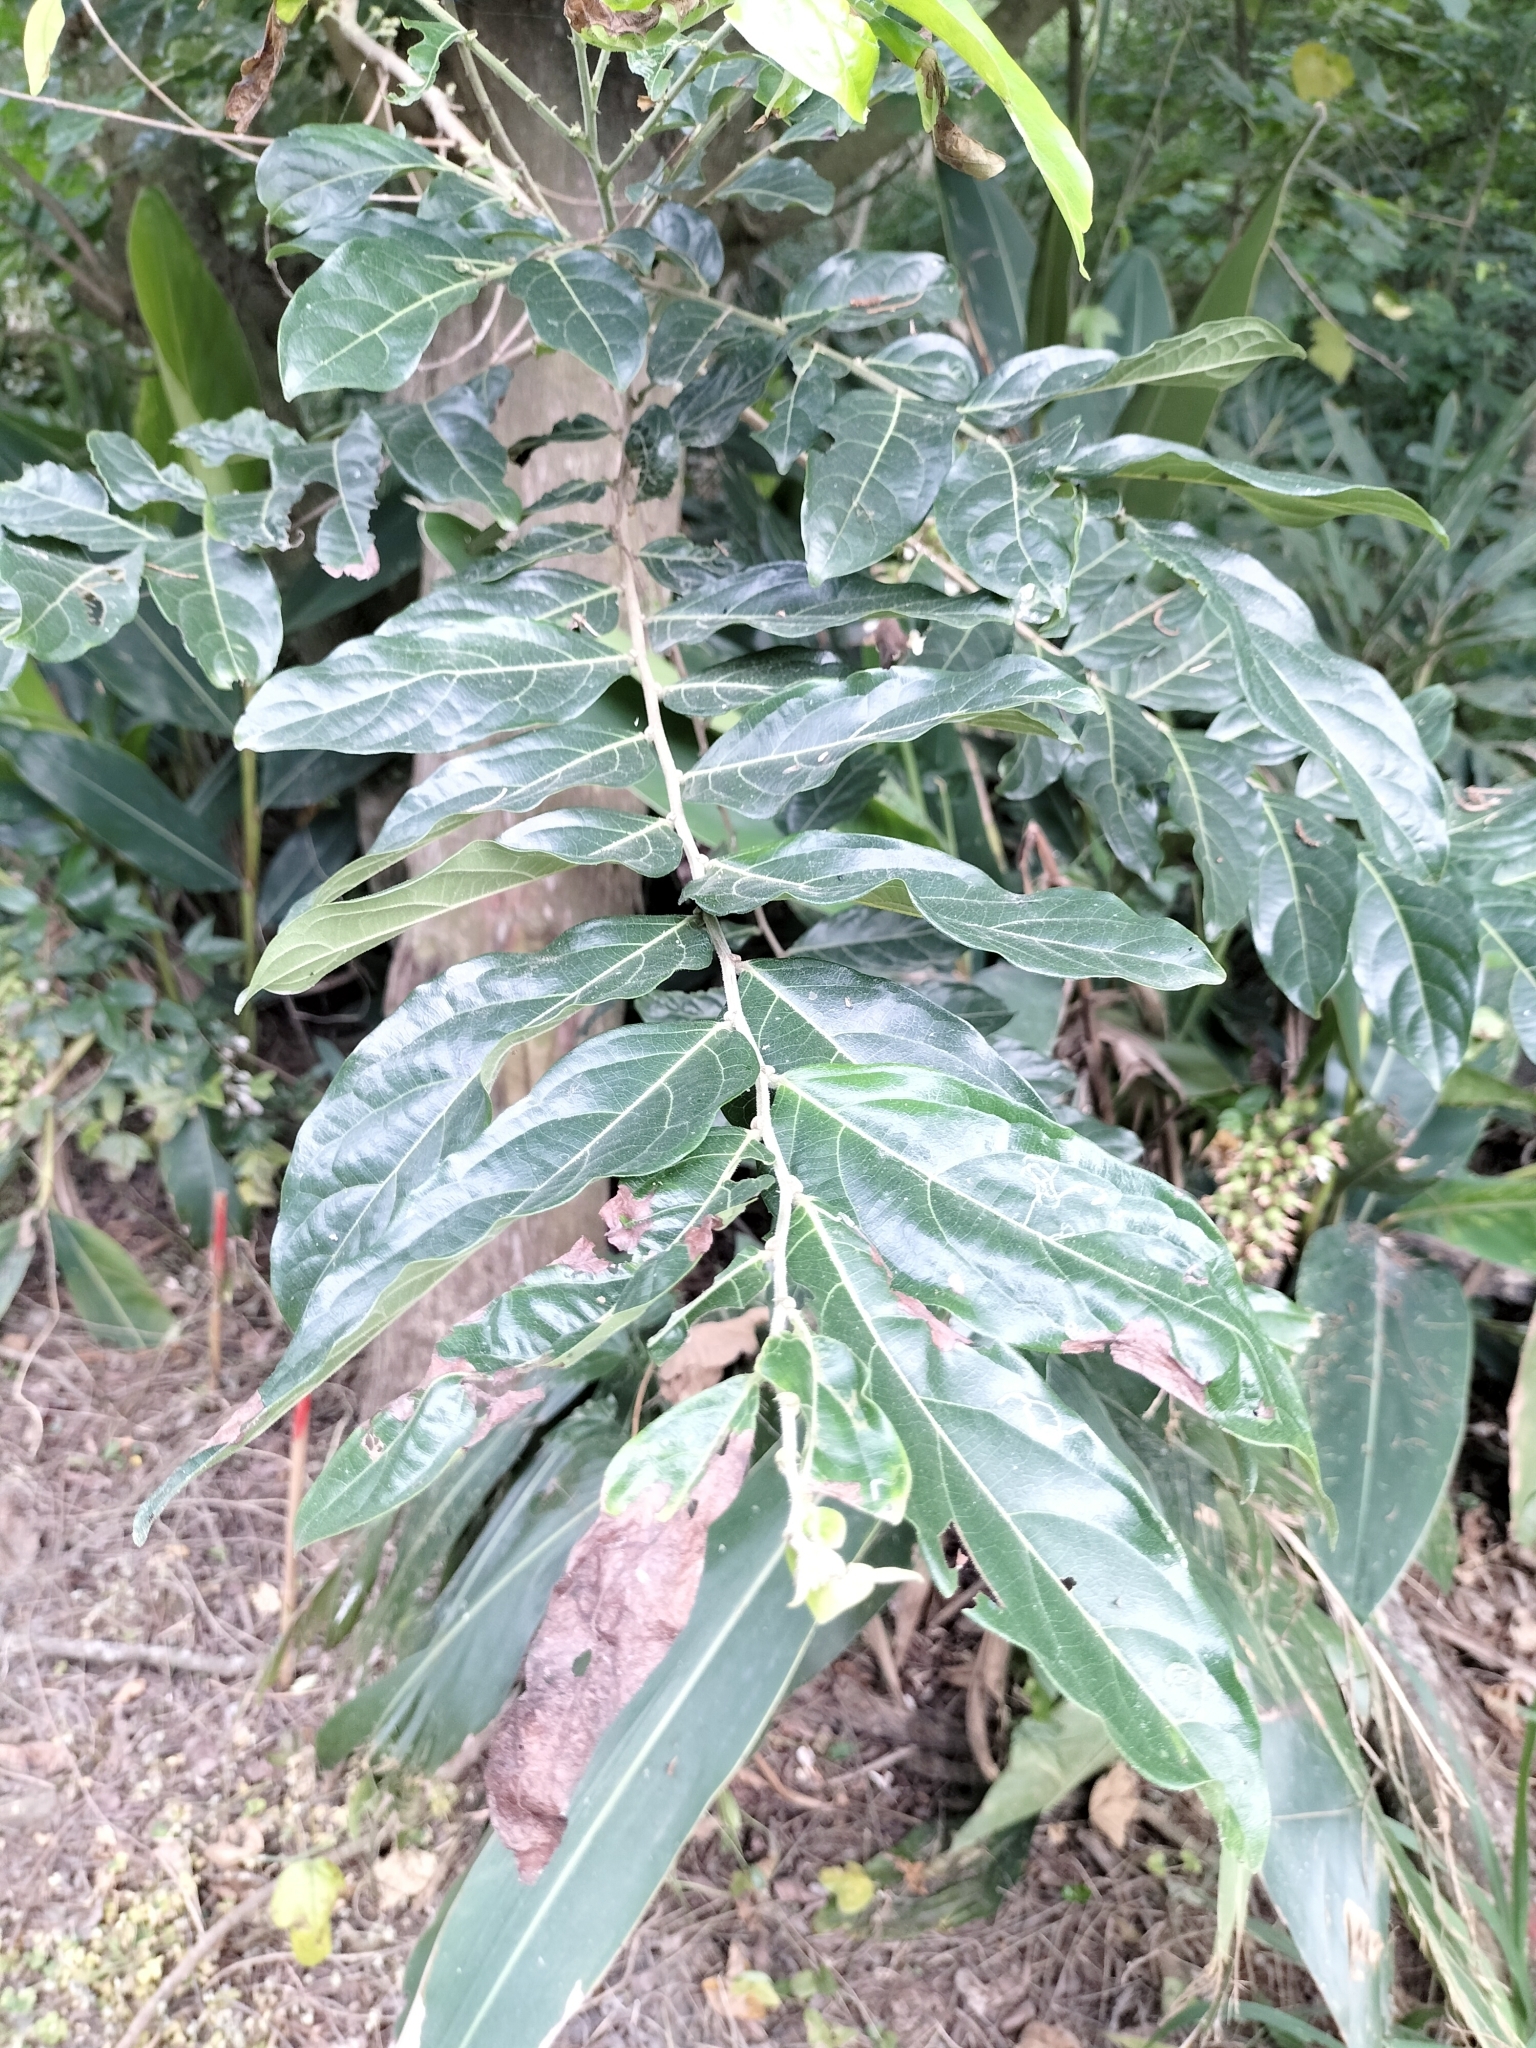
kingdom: Plantae
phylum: Tracheophyta
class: Magnoliopsida
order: Malpighiales
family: Phyllanthaceae
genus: Glochidion
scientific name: Glochidion philippicum
